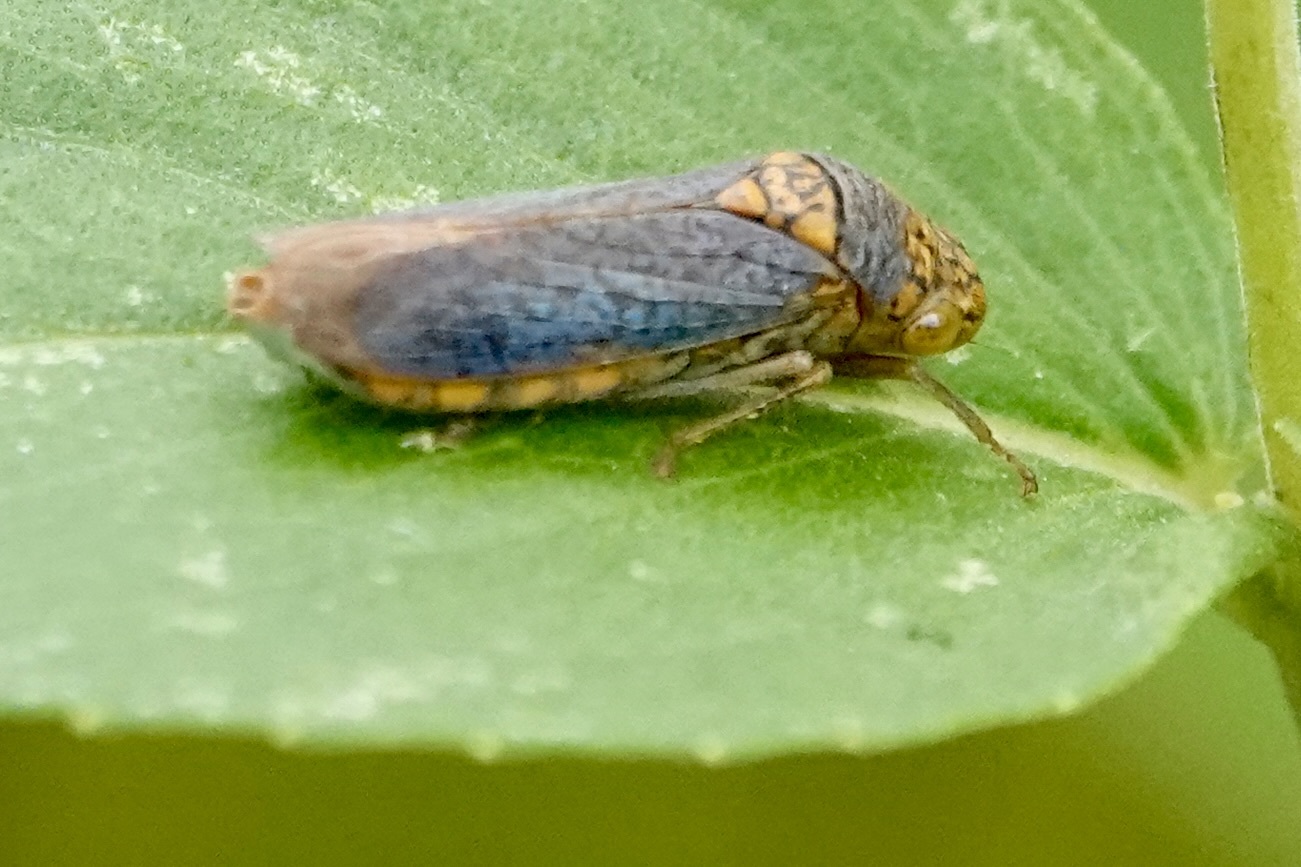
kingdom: Animalia
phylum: Arthropoda
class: Insecta
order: Hemiptera
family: Cicadellidae
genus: Oncometopia
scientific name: Oncometopia orbona
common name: Broad-headed sharpshooter
